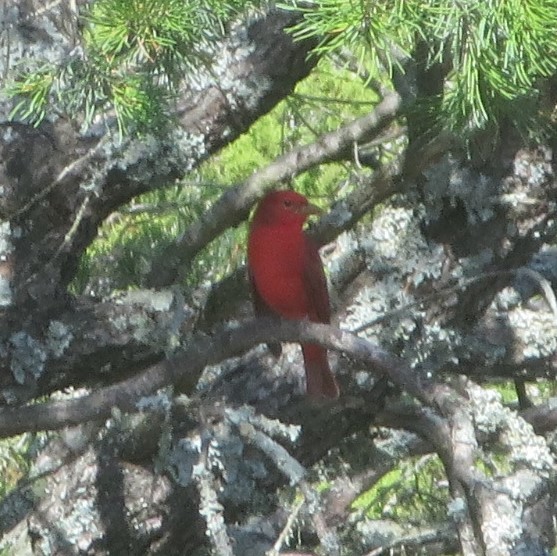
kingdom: Animalia
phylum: Chordata
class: Aves
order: Passeriformes
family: Cardinalidae
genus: Piranga
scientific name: Piranga rubra
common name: Summer tanager
